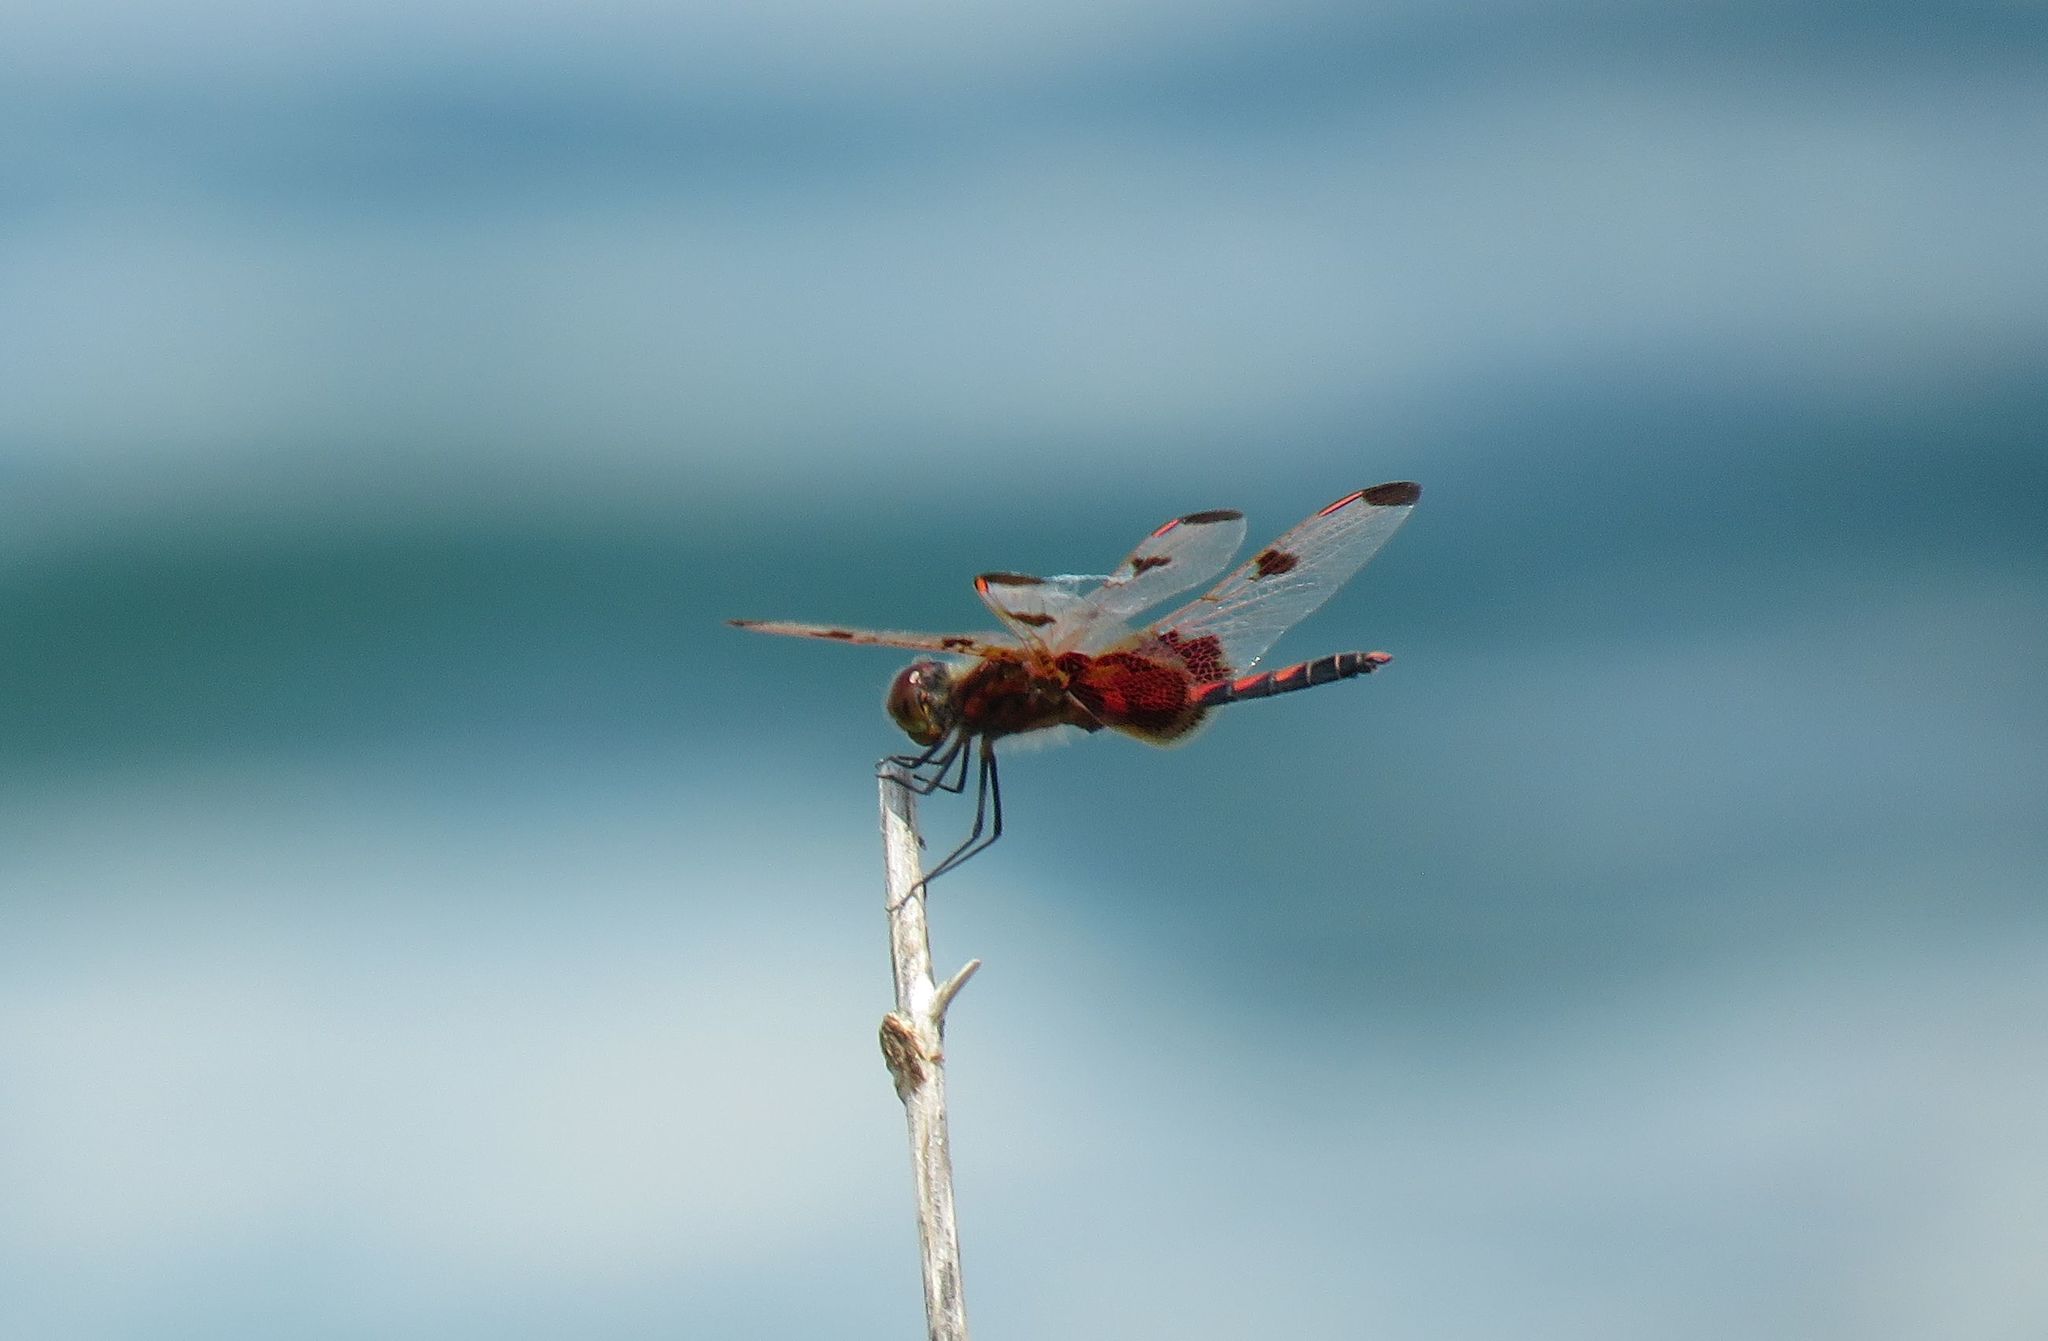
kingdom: Animalia
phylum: Arthropoda
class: Insecta
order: Odonata
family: Libellulidae
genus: Celithemis
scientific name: Celithemis elisa
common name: Calico pennant
